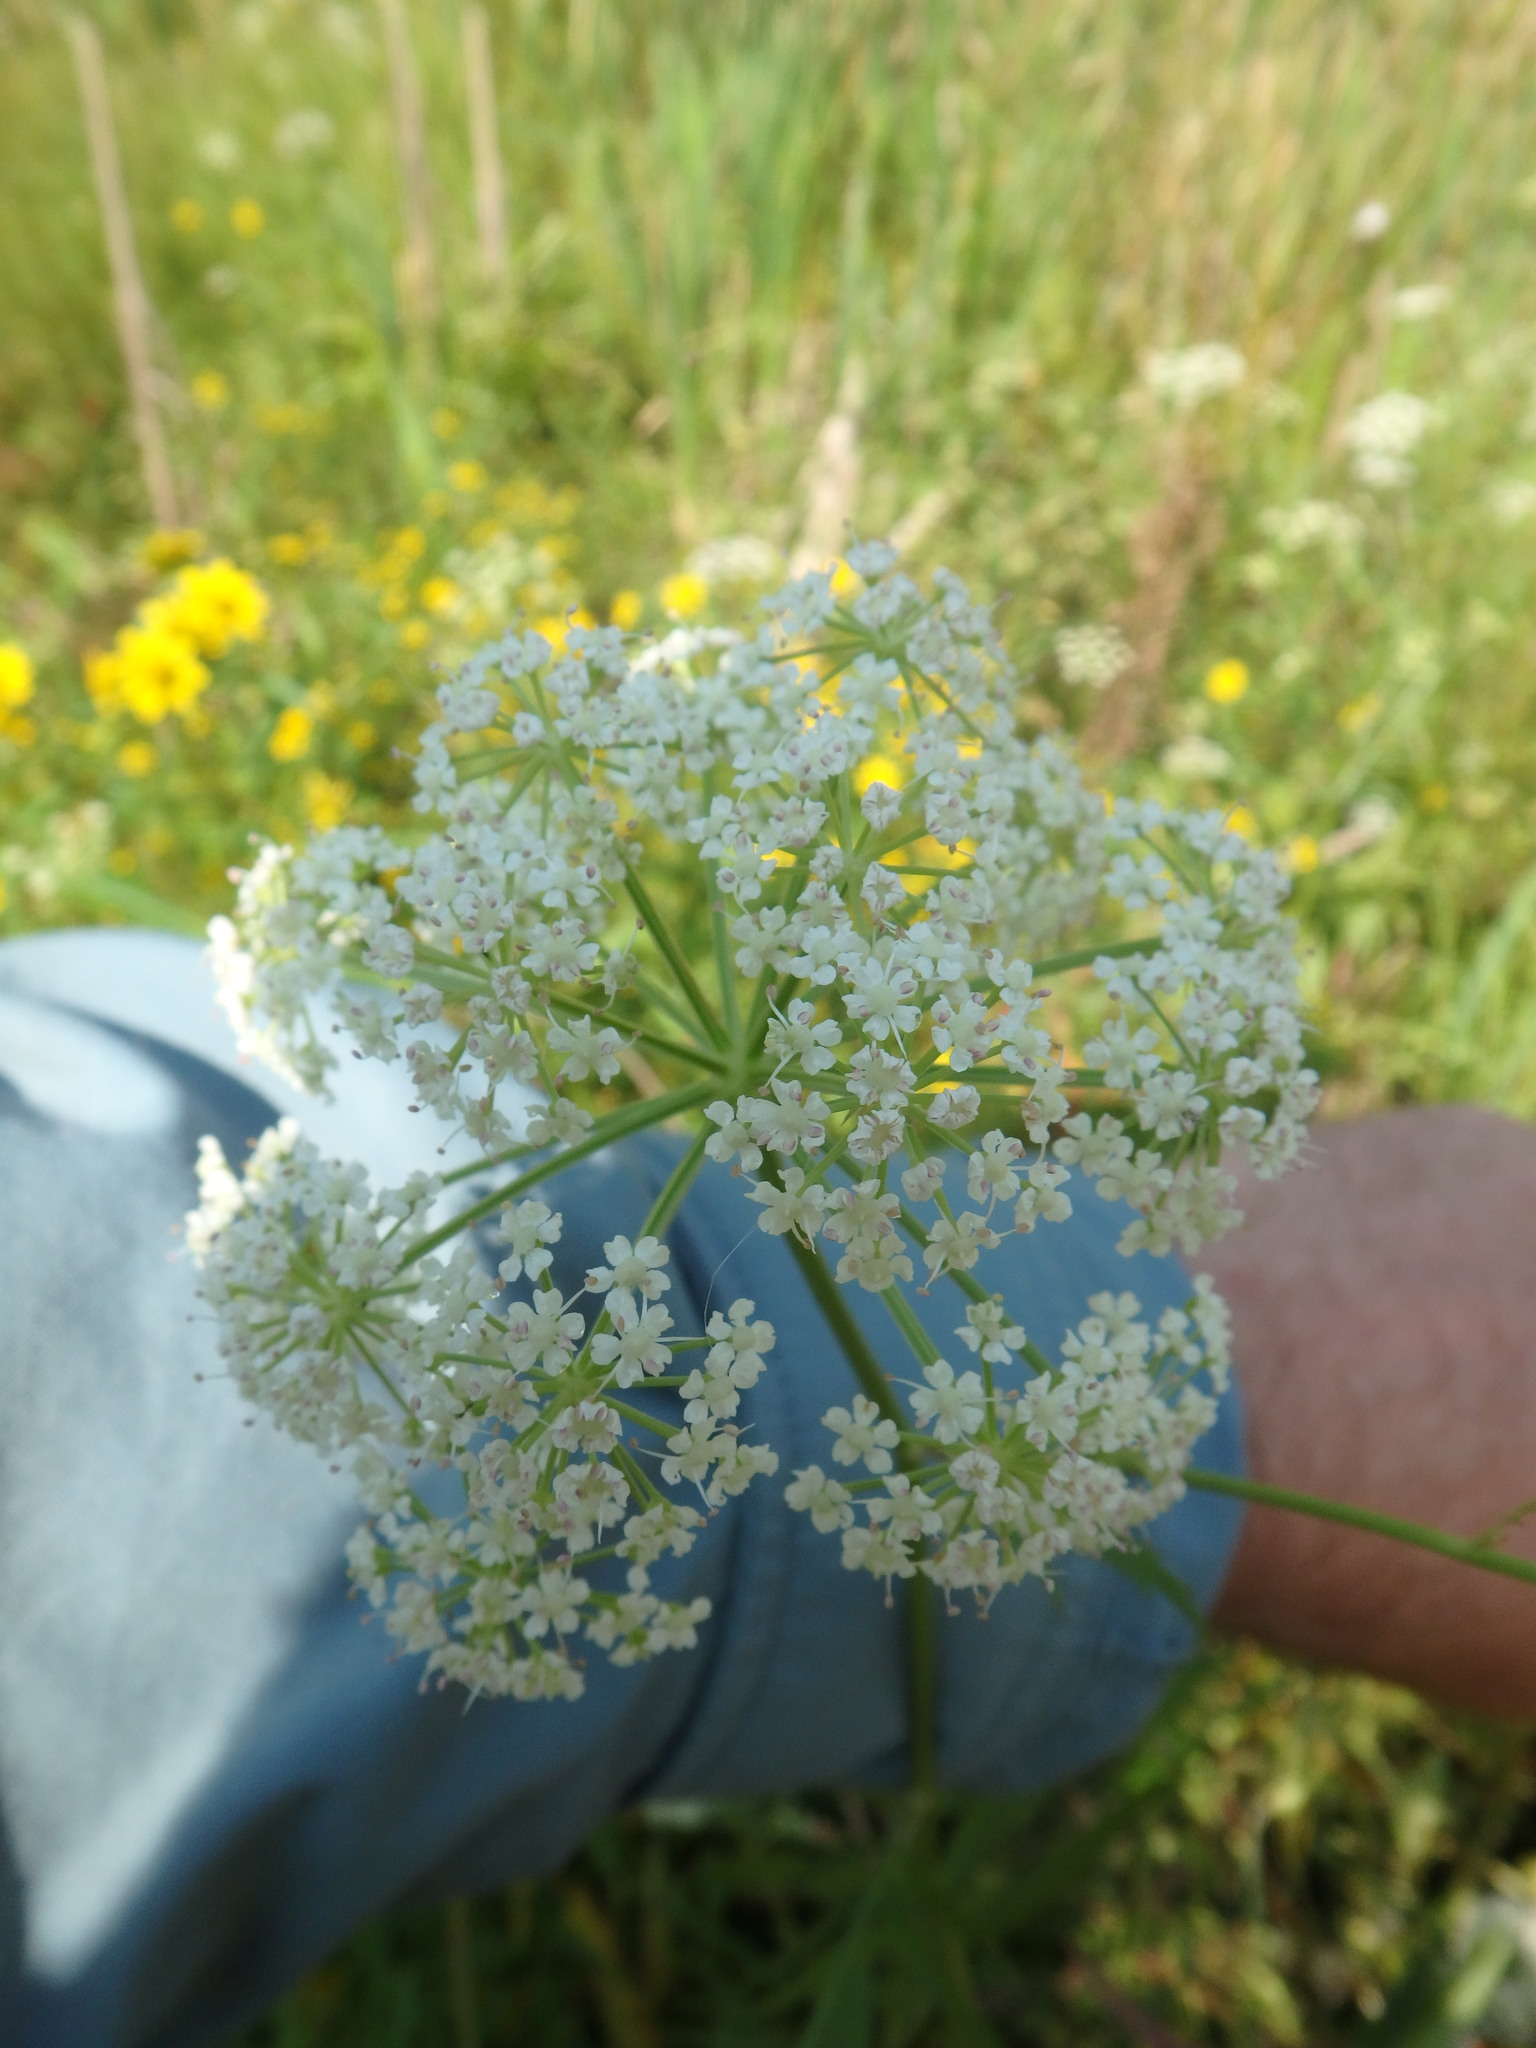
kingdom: Plantae
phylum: Tracheophyta
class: Magnoliopsida
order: Apiales
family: Apiaceae
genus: Sium
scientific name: Sium suave
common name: Hemlock water-parsnip
